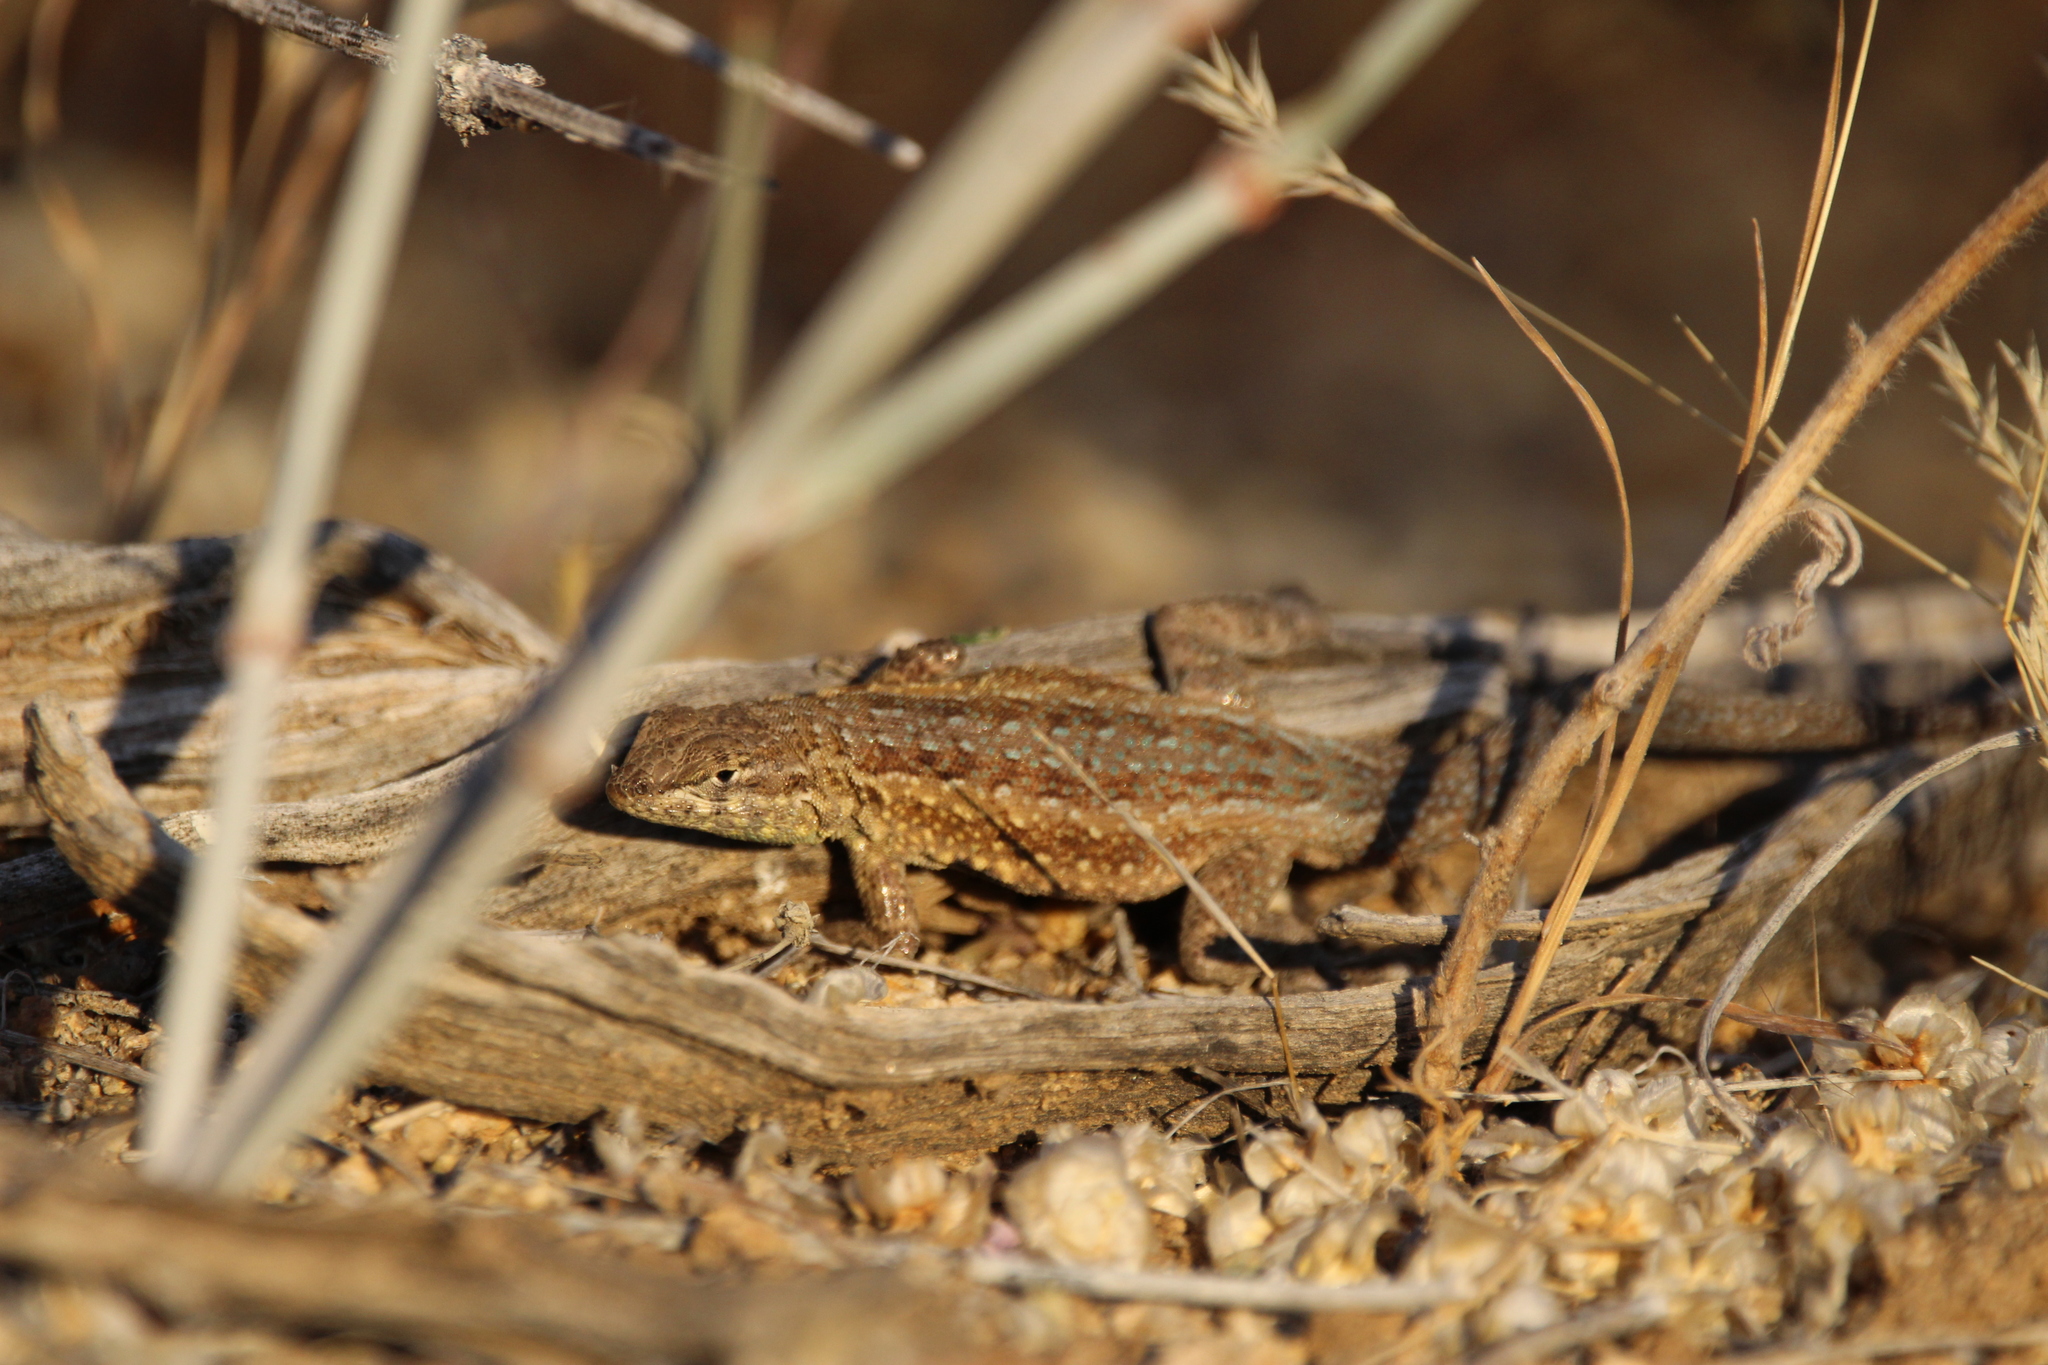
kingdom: Animalia
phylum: Chordata
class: Squamata
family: Phrynosomatidae
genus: Uta
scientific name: Uta stansburiana
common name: Side-blotched lizard
